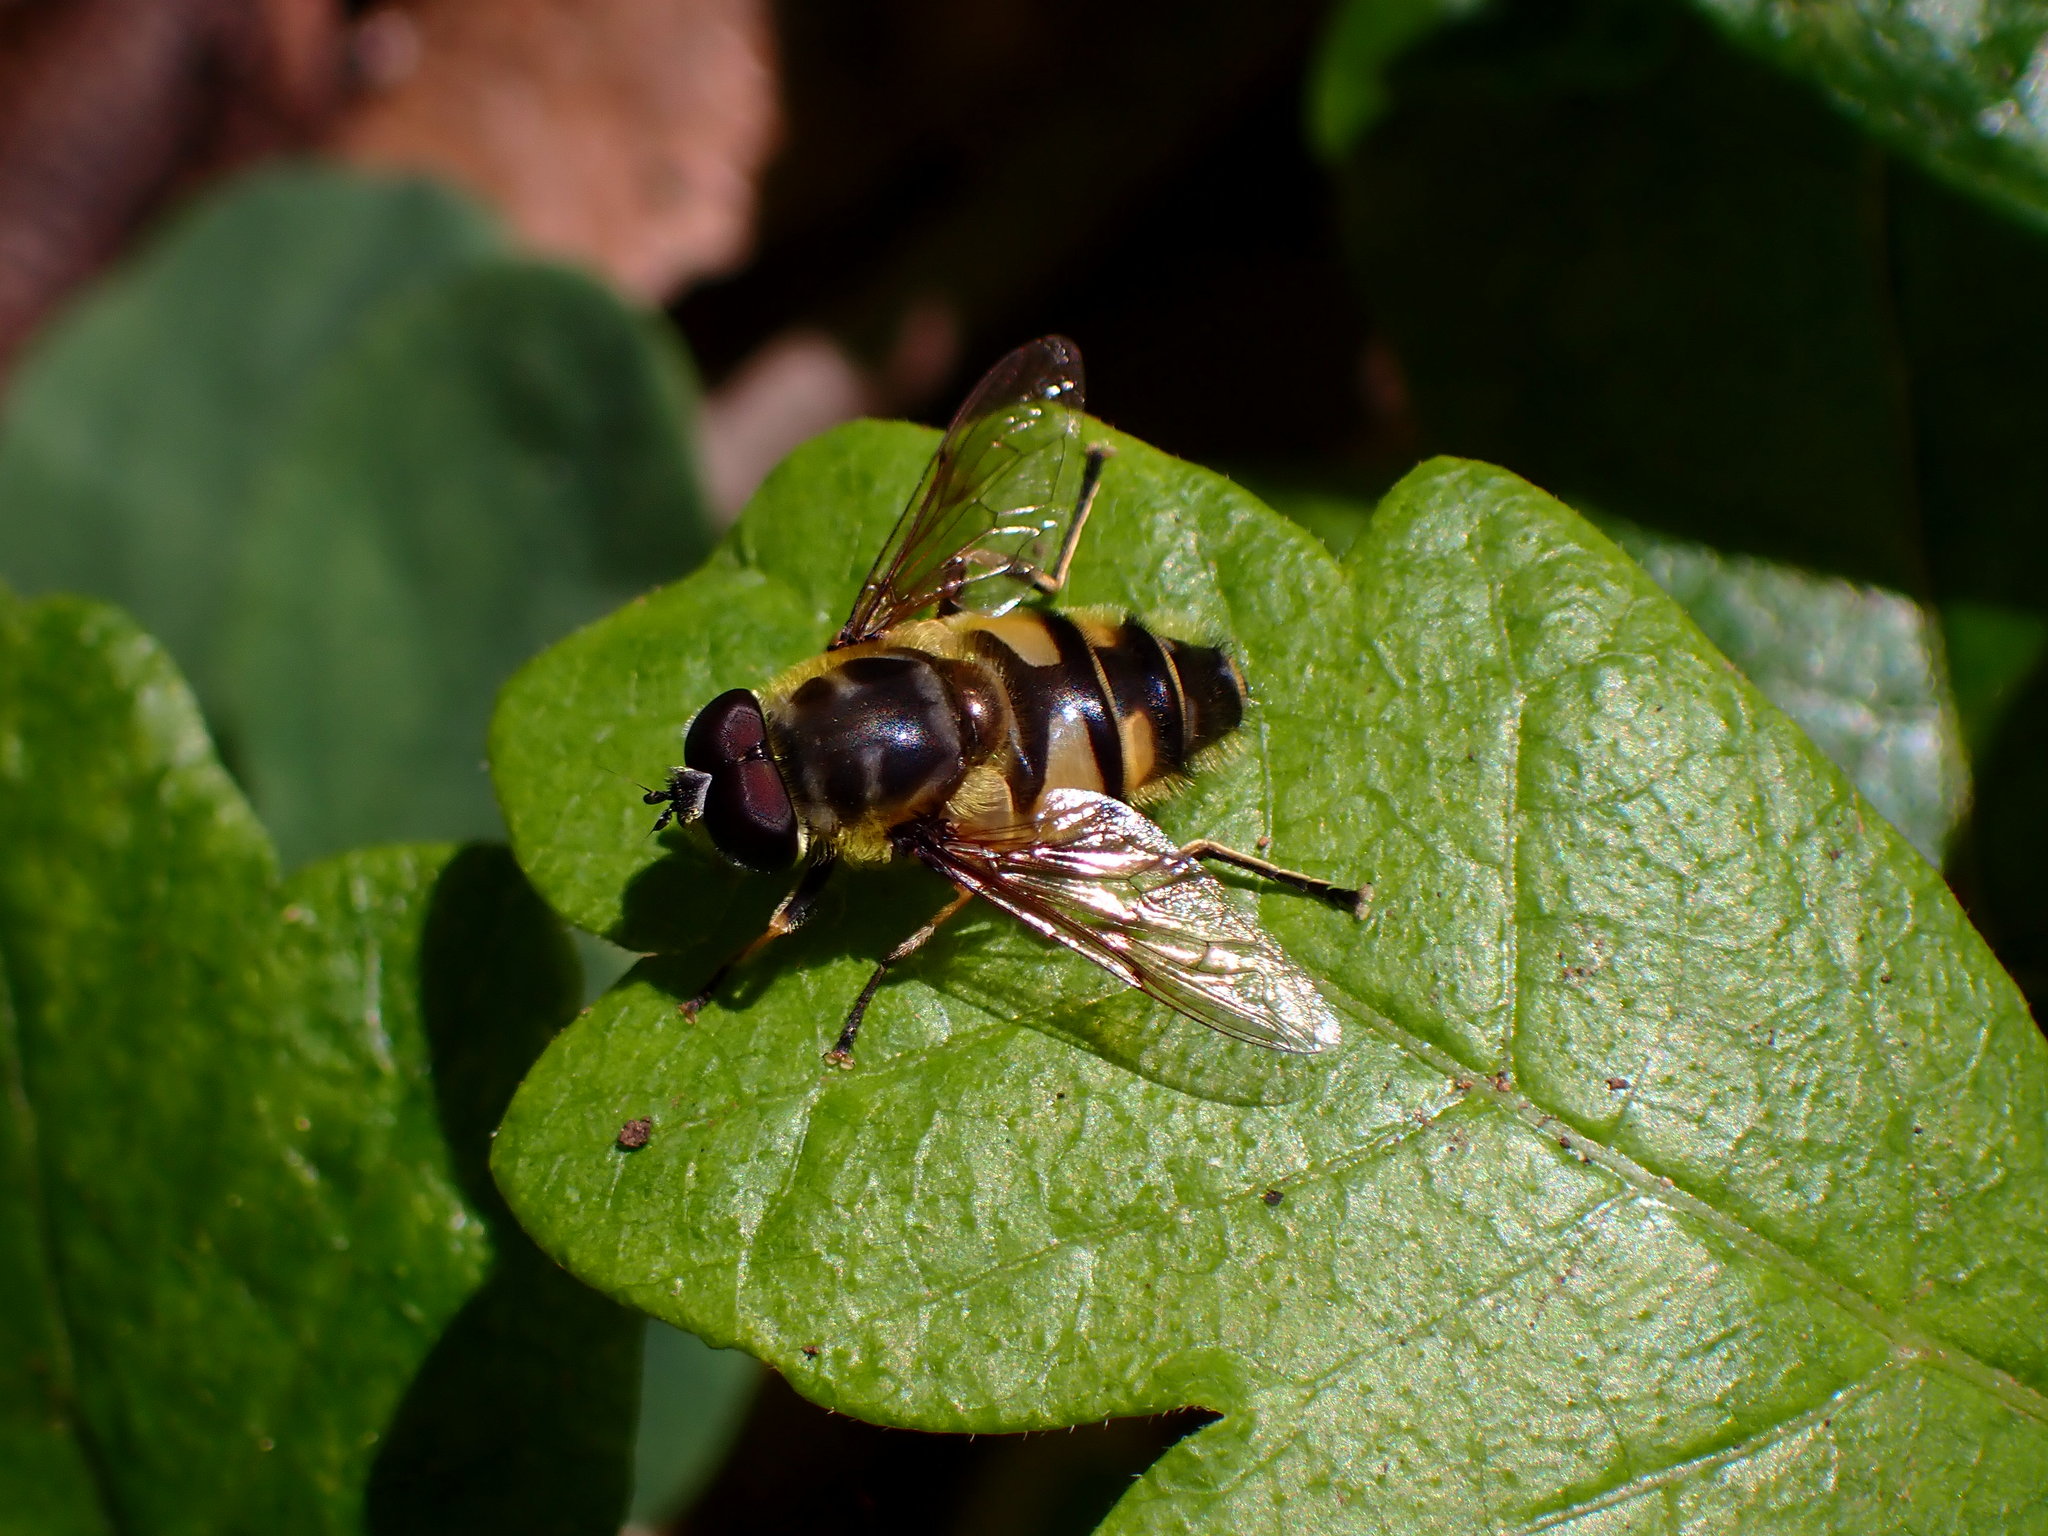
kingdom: Animalia
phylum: Arthropoda
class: Insecta
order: Diptera
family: Syrphidae
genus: Myathropa
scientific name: Myathropa florea
